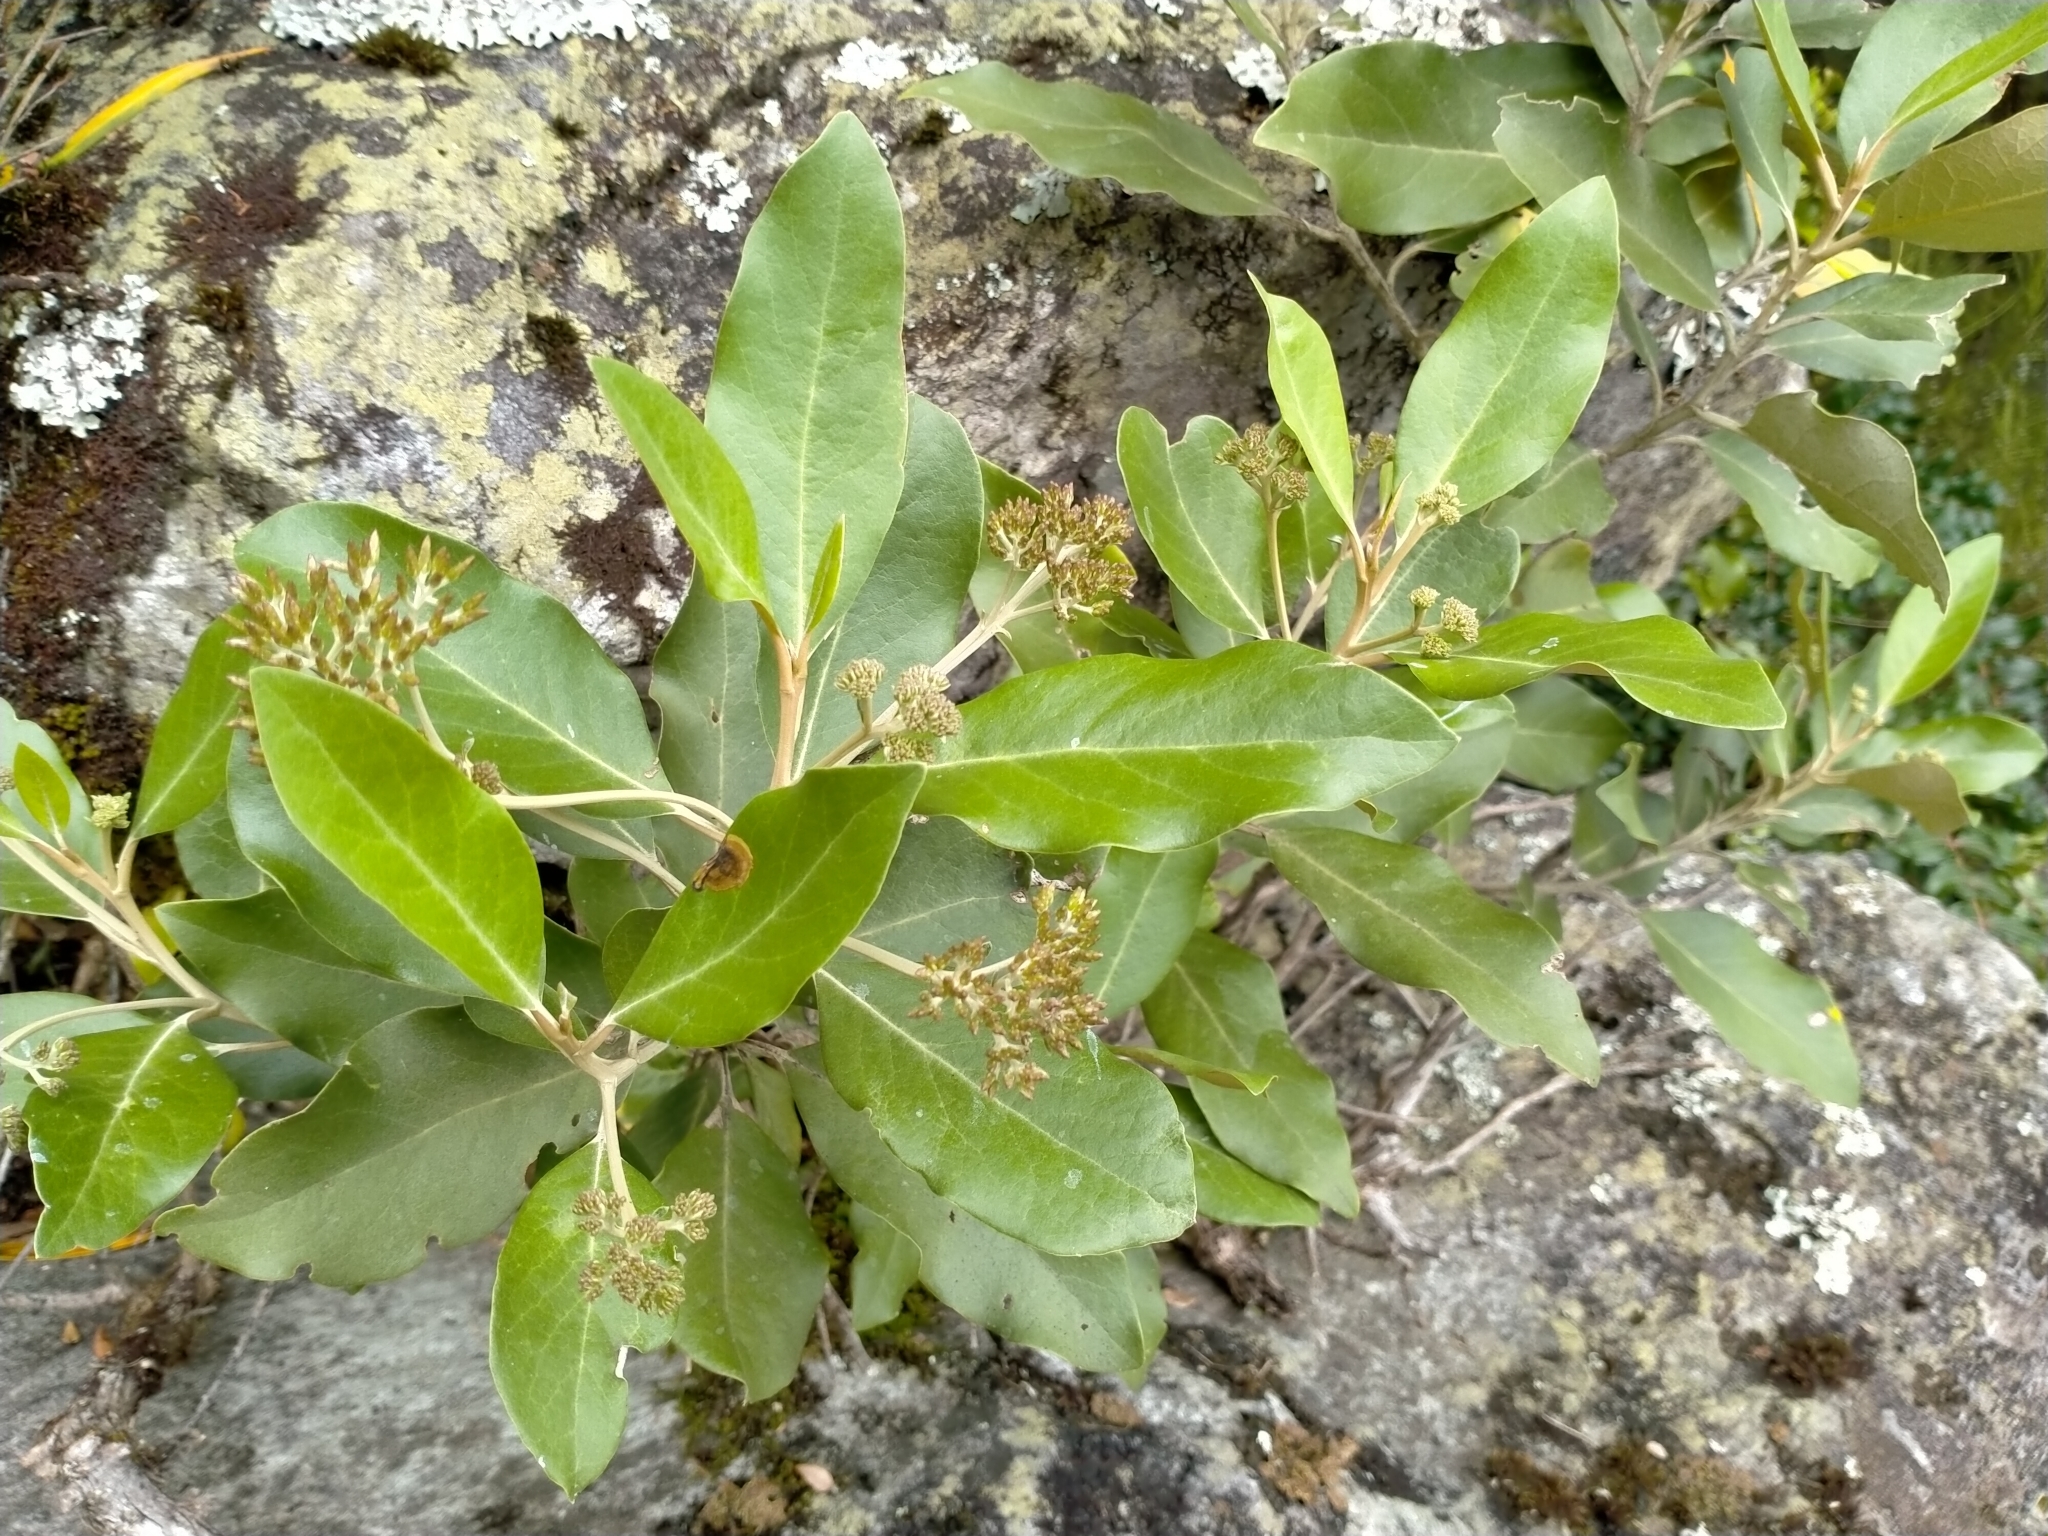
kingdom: Plantae
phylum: Tracheophyta
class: Magnoliopsida
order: Asterales
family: Asteraceae
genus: Olearia
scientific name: Olearia avicenniifolia
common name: Mangrove-leaf daisybush
